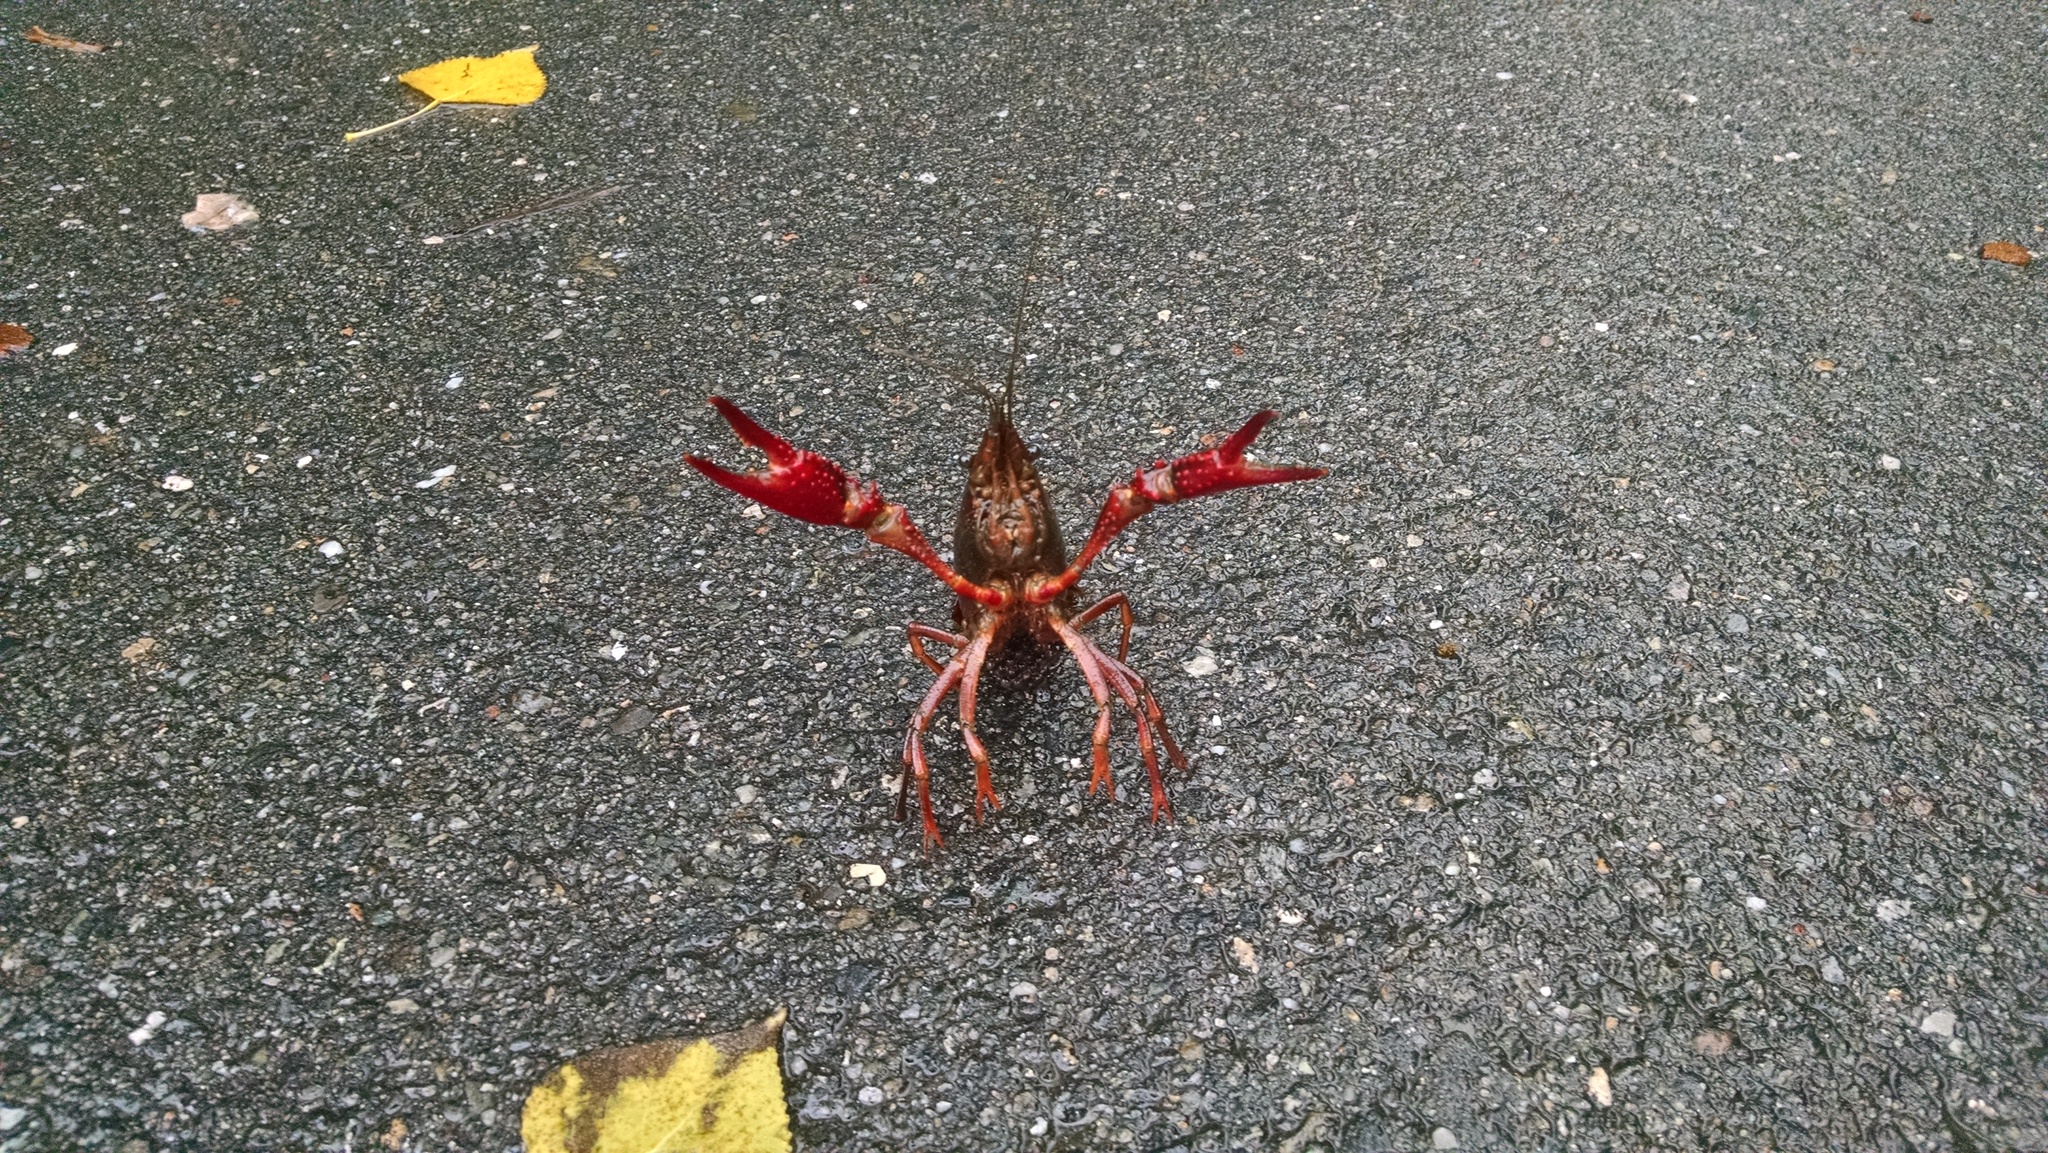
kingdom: Animalia
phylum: Arthropoda
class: Malacostraca
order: Decapoda
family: Cambaridae
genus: Procambarus
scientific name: Procambarus clarkii
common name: Red swamp crayfish
